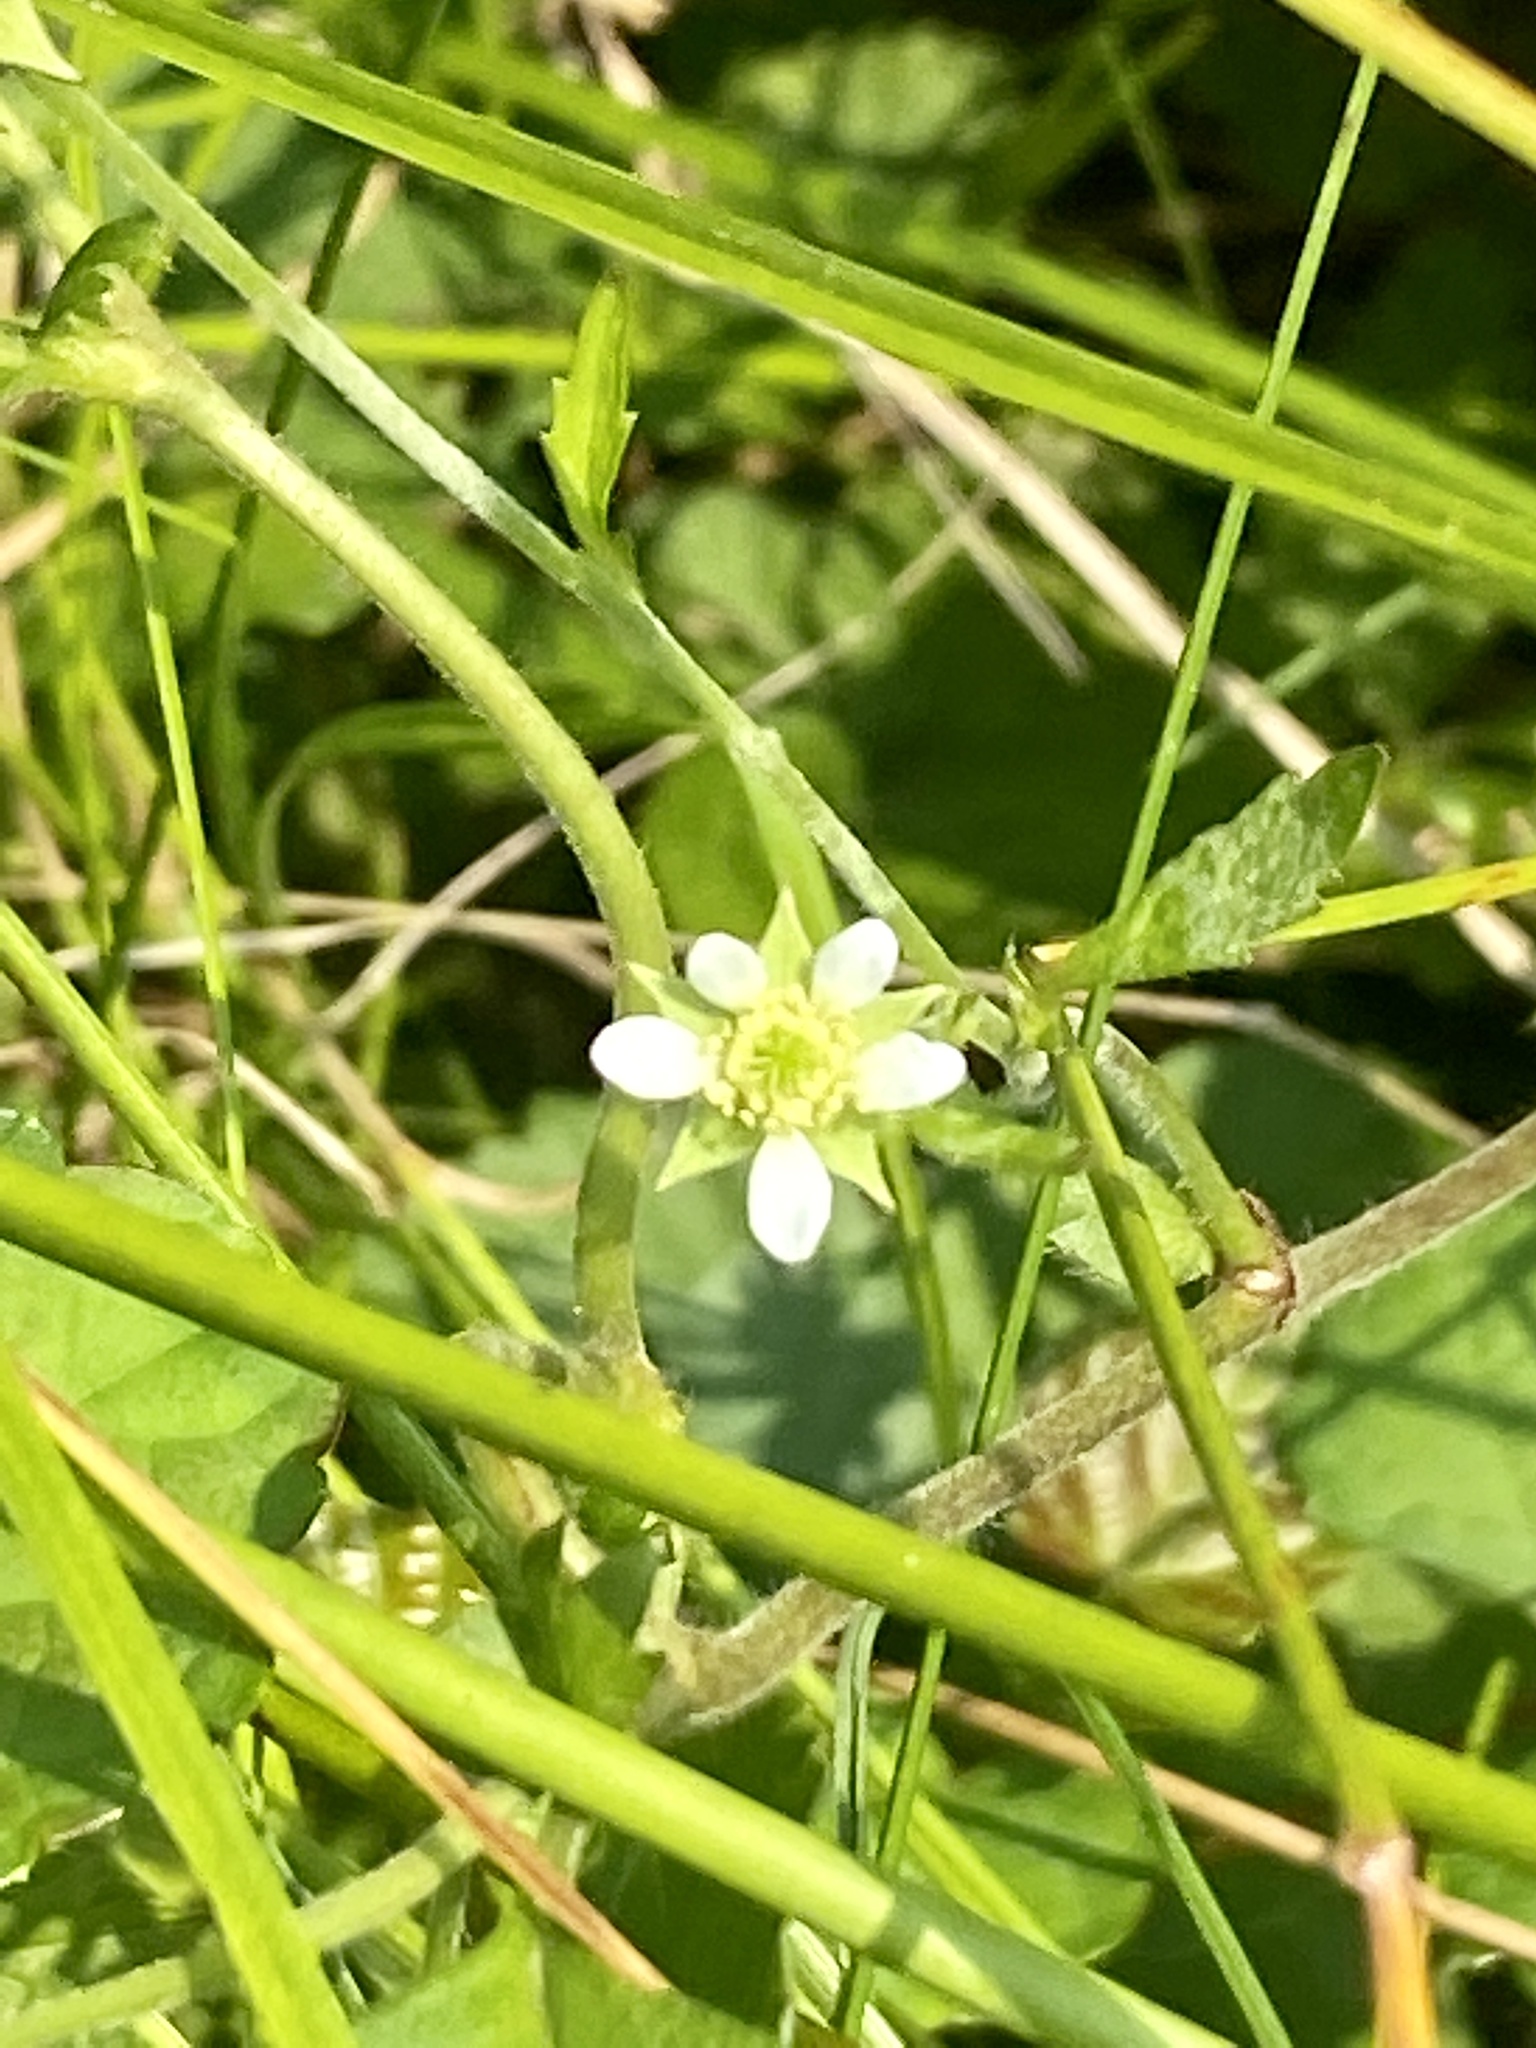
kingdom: Plantae
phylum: Tracheophyta
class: Magnoliopsida
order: Rosales
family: Rosaceae
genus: Geum
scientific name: Geum canadense
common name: White avens
